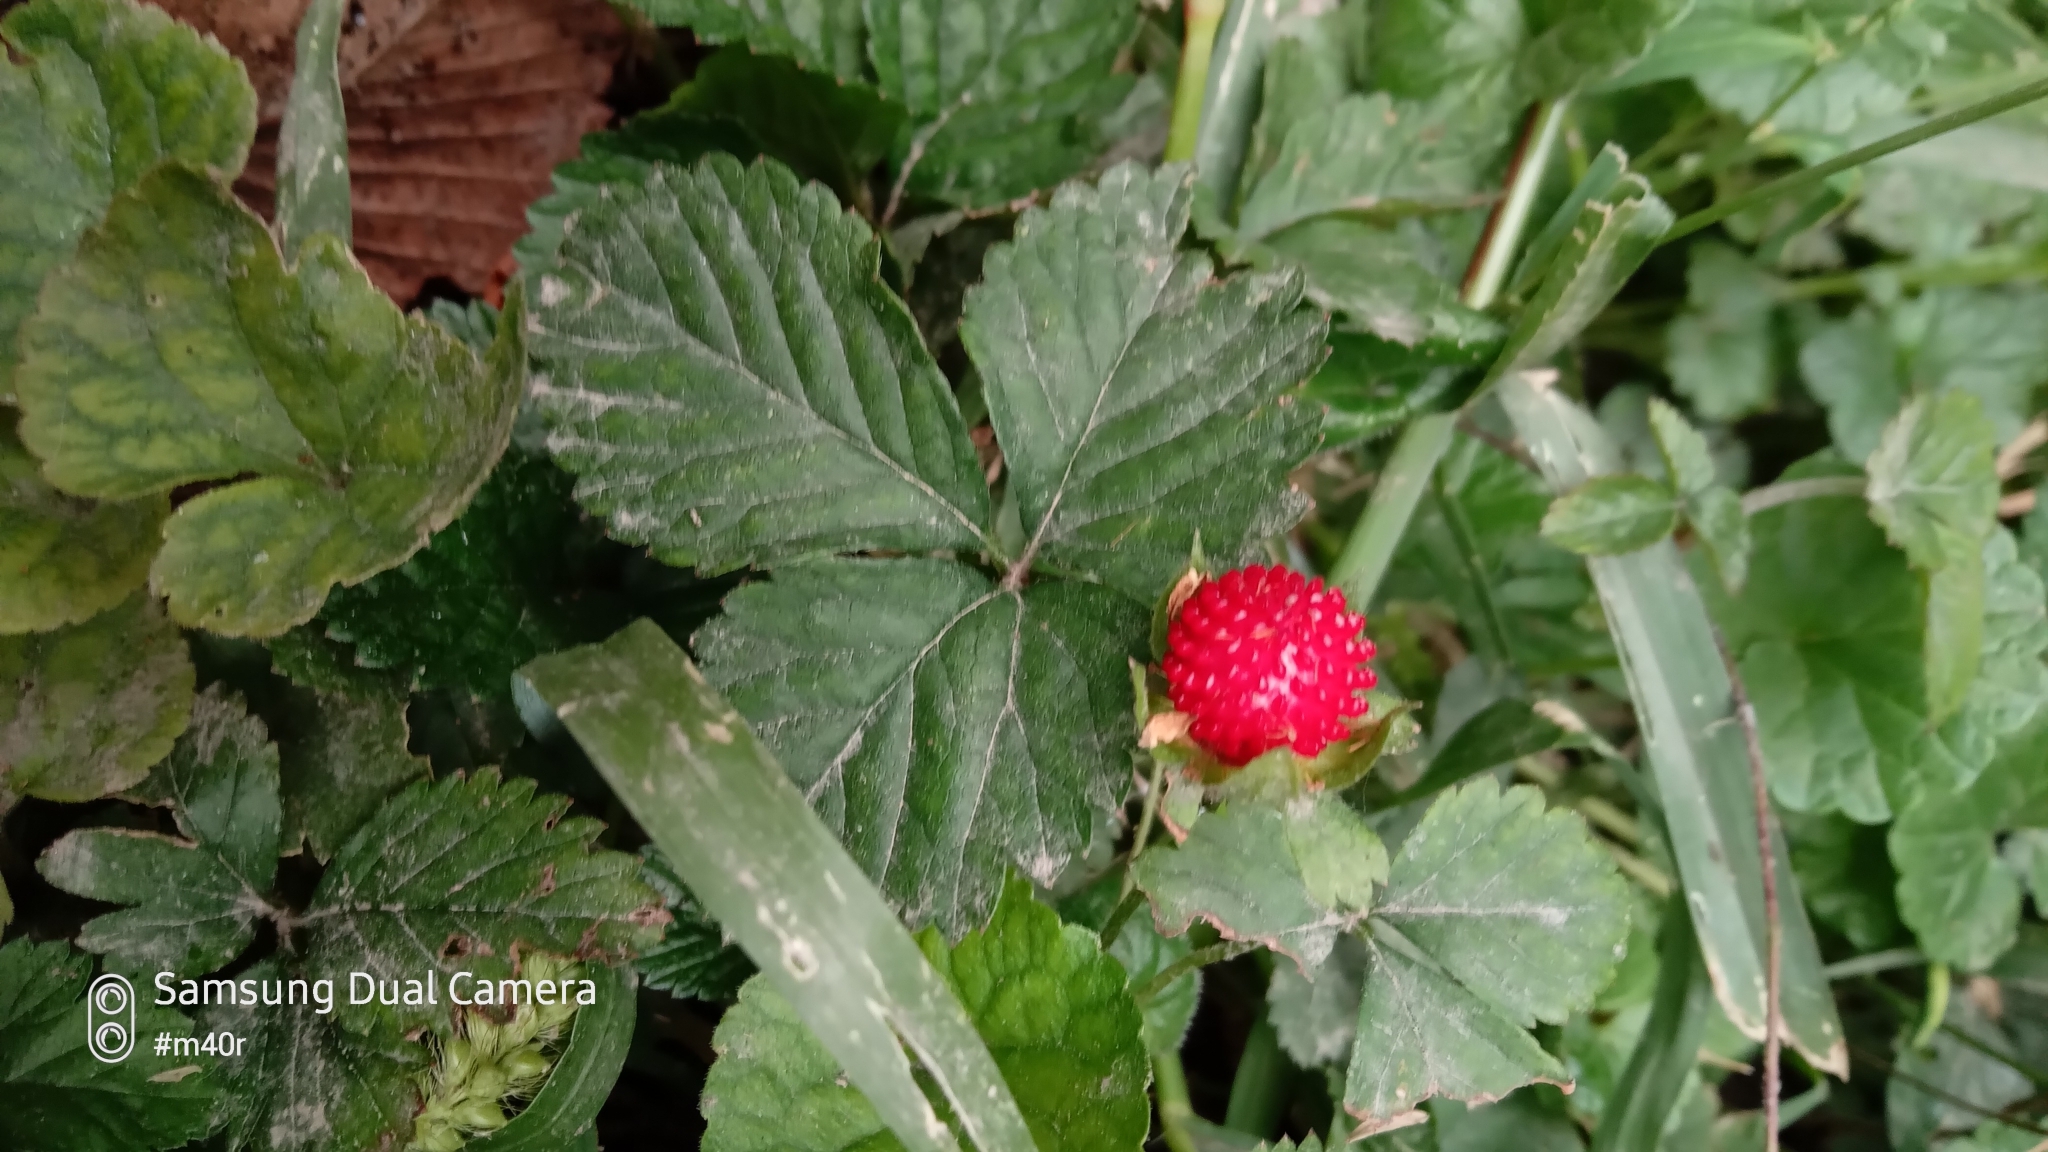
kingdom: Plantae
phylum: Tracheophyta
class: Magnoliopsida
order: Rosales
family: Rosaceae
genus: Potentilla
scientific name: Potentilla indica
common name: Yellow-flowered strawberry
